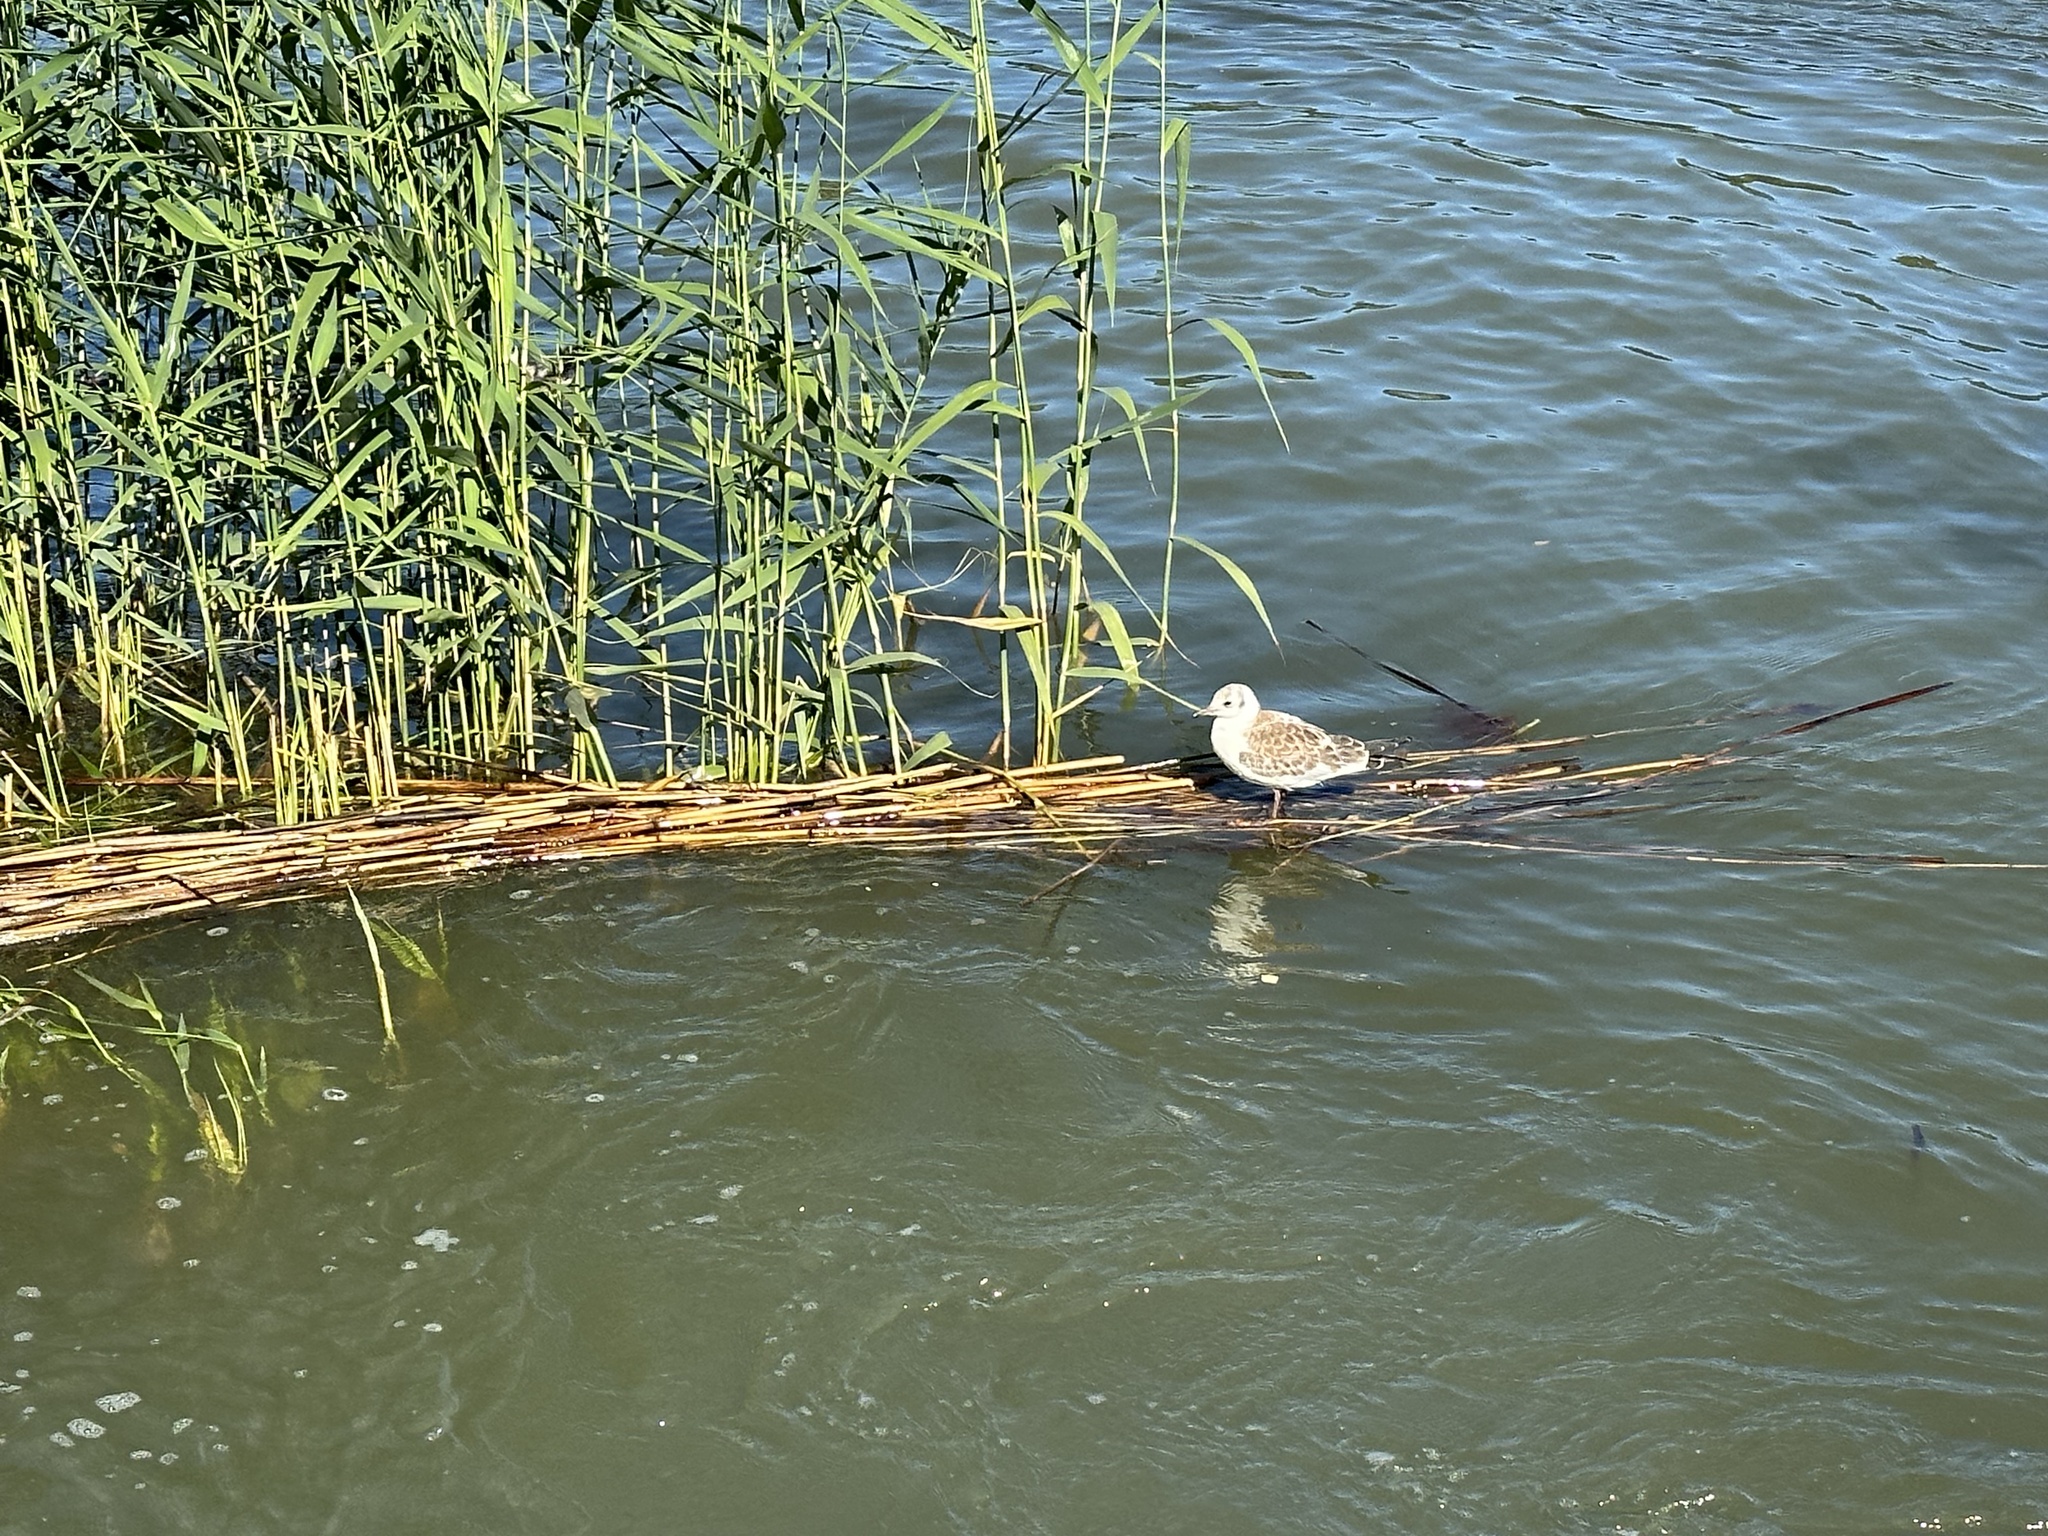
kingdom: Animalia
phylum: Chordata
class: Aves
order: Charadriiformes
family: Laridae
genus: Chroicocephalus
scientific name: Chroicocephalus ridibundus
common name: Black-headed gull
